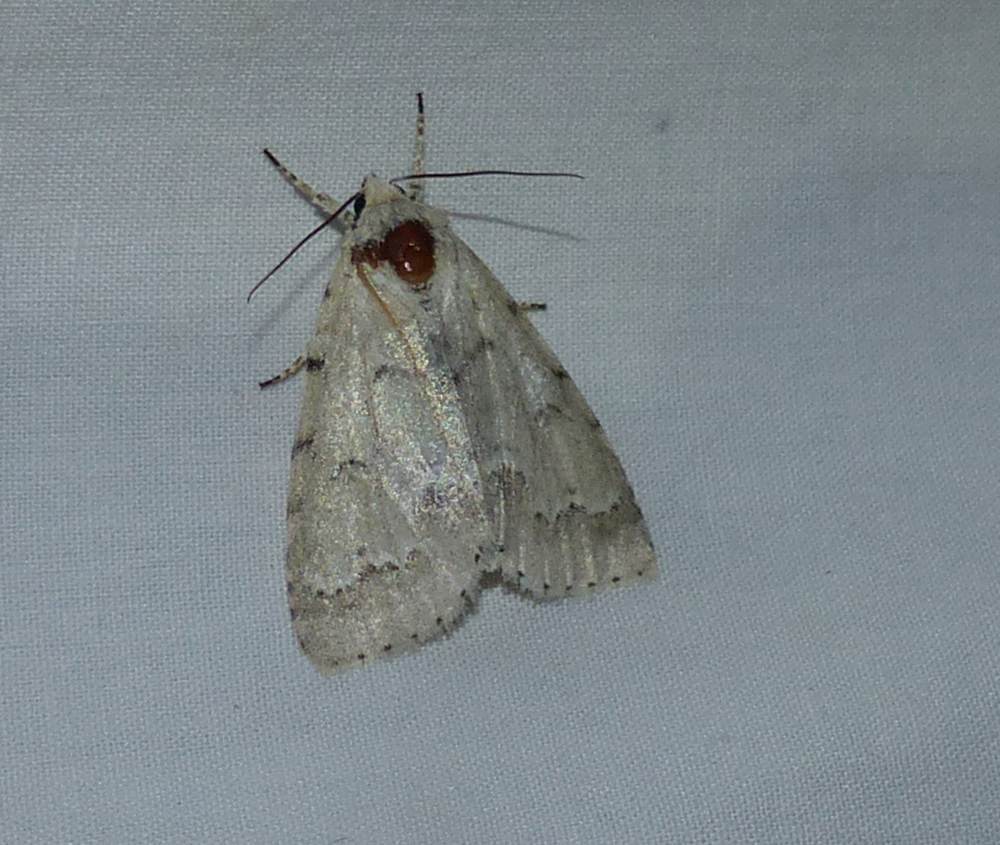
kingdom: Animalia
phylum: Arthropoda
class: Insecta
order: Lepidoptera
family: Noctuidae
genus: Acronicta
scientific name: Acronicta innotata
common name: Unmarked dagger
